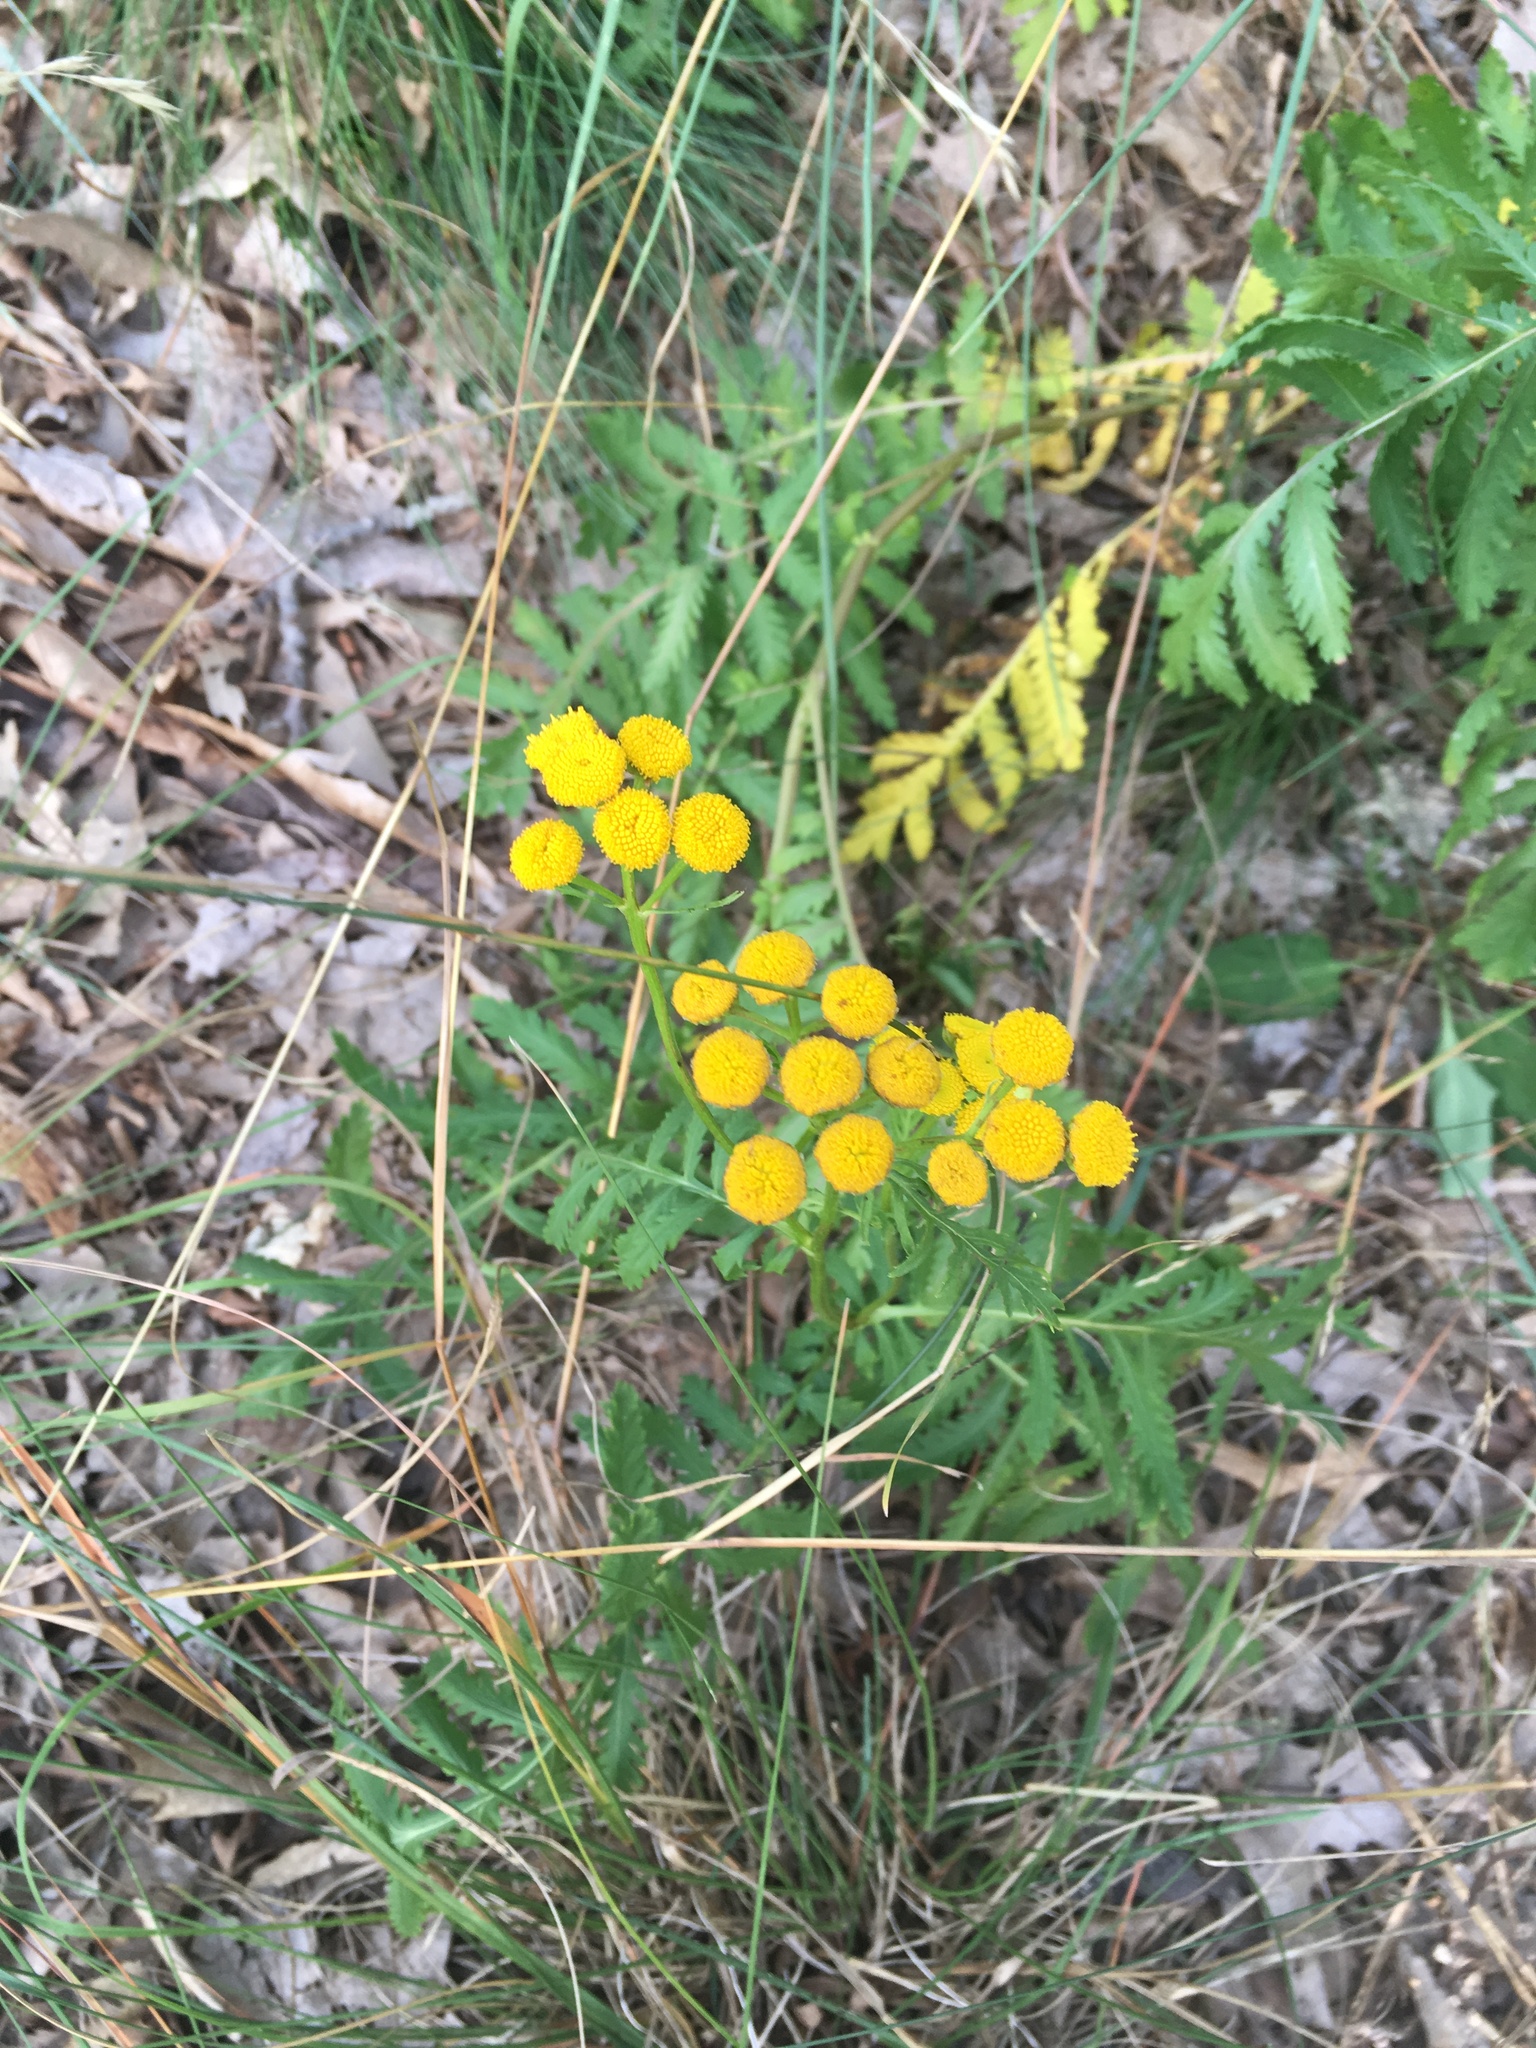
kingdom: Plantae
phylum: Tracheophyta
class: Magnoliopsida
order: Asterales
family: Asteraceae
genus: Tanacetum
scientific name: Tanacetum vulgare
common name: Common tansy
